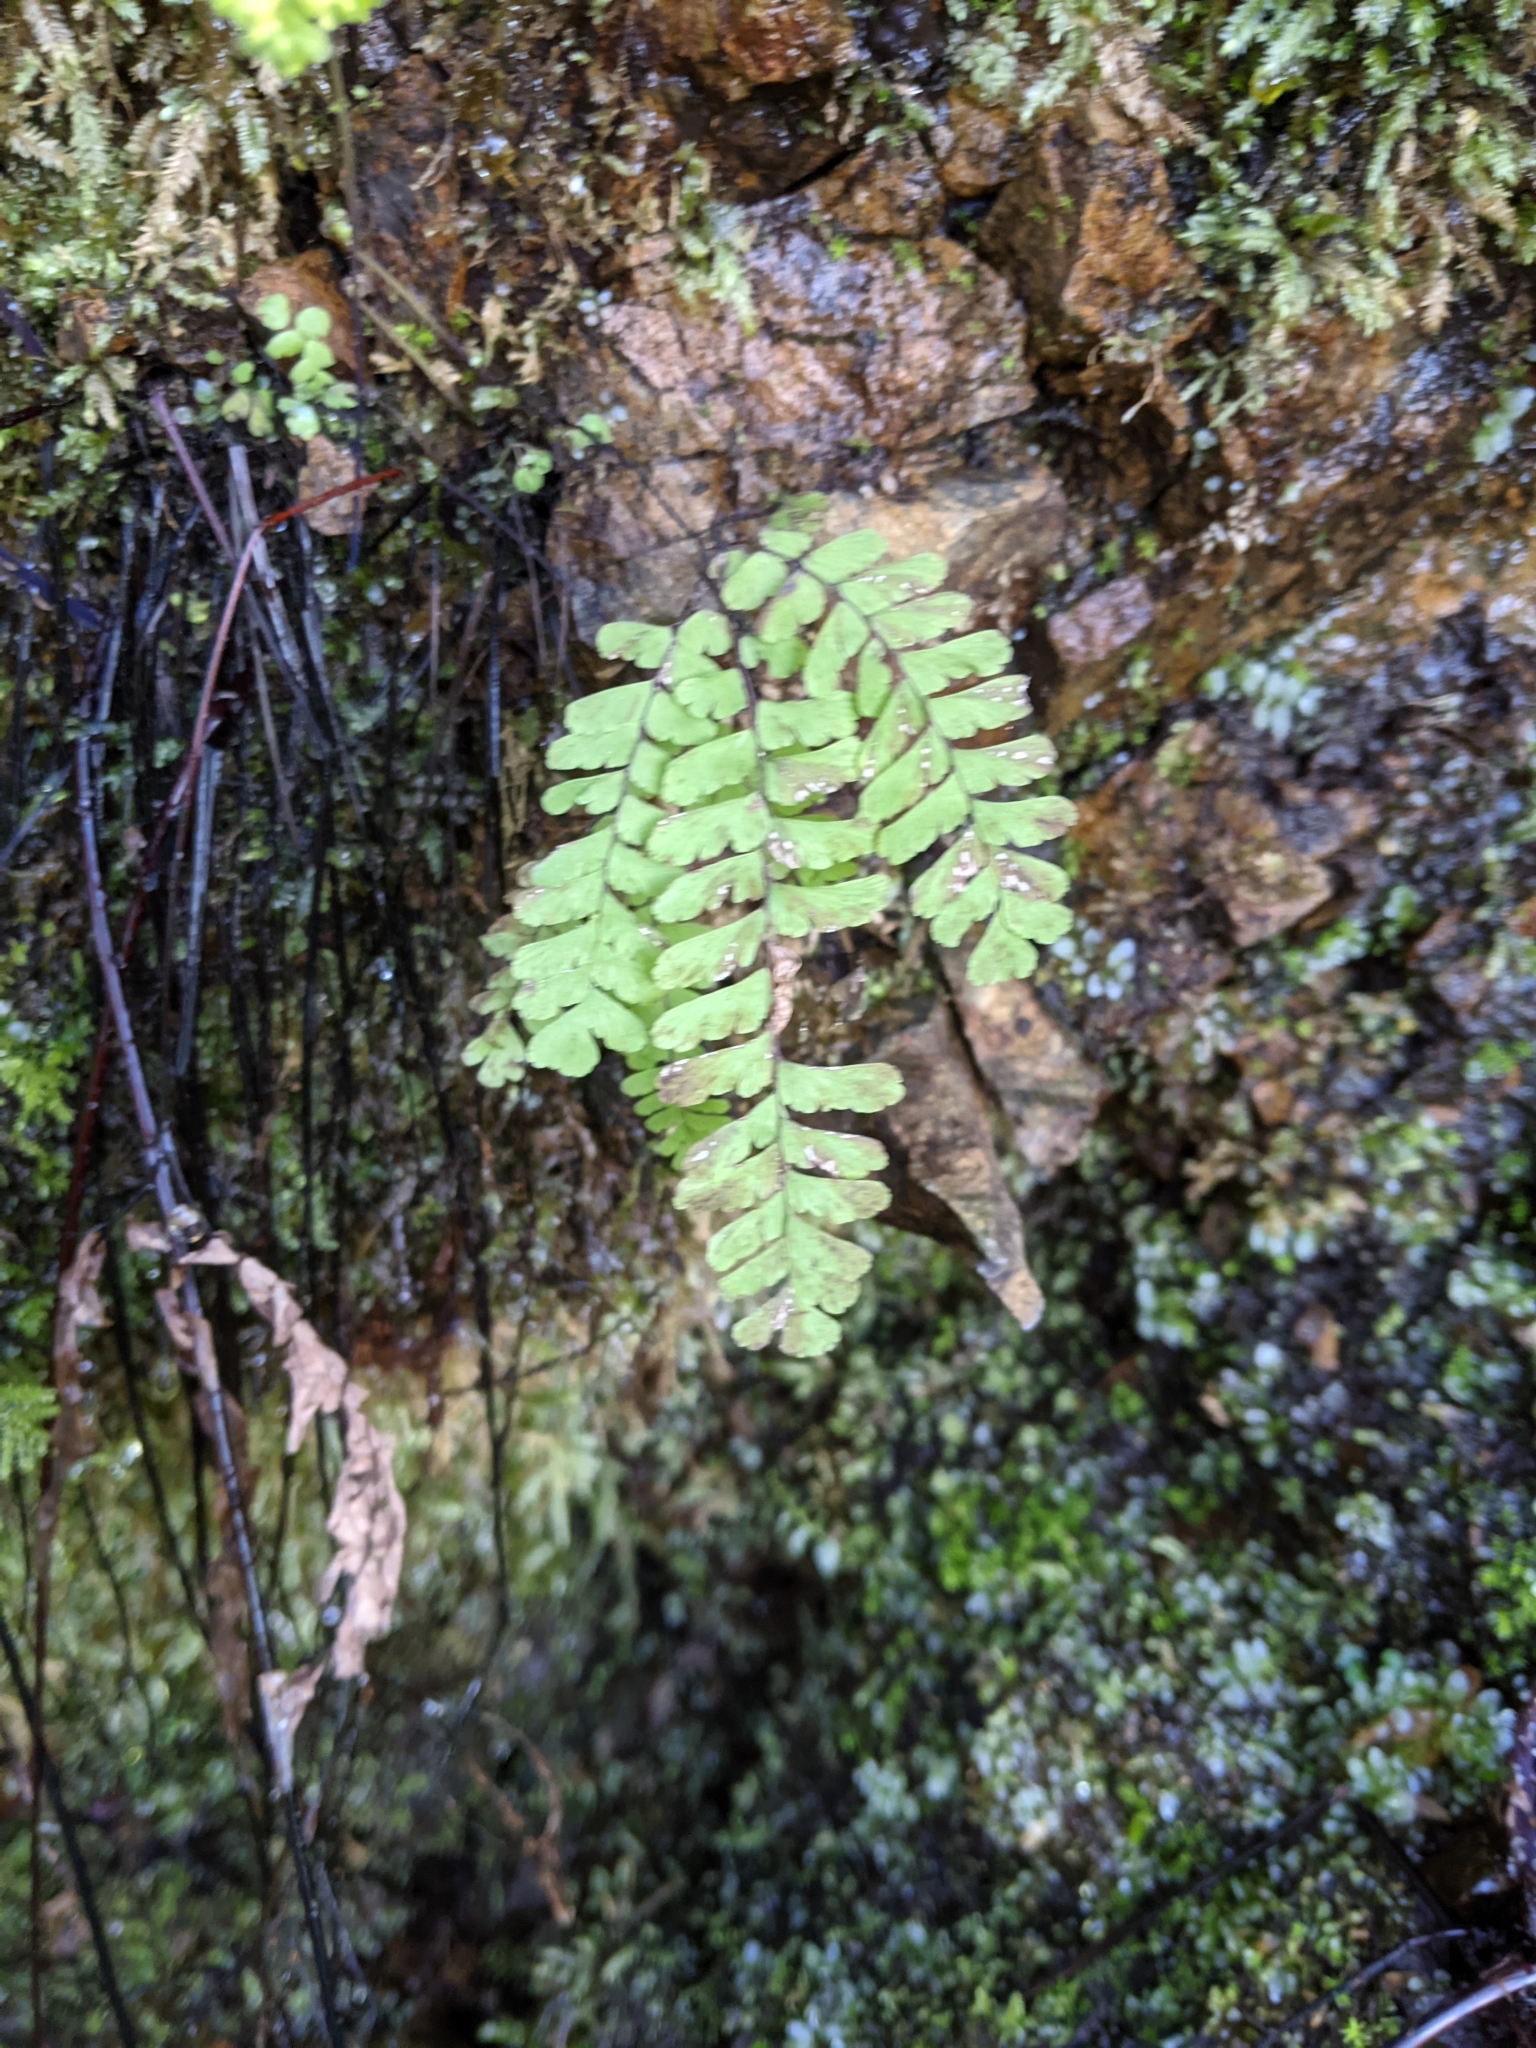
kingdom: Plantae
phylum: Tracheophyta
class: Polypodiopsida
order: Polypodiales
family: Pteridaceae
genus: Adiantum
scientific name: Adiantum aleuticum
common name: Aleutian maidenhair fern
